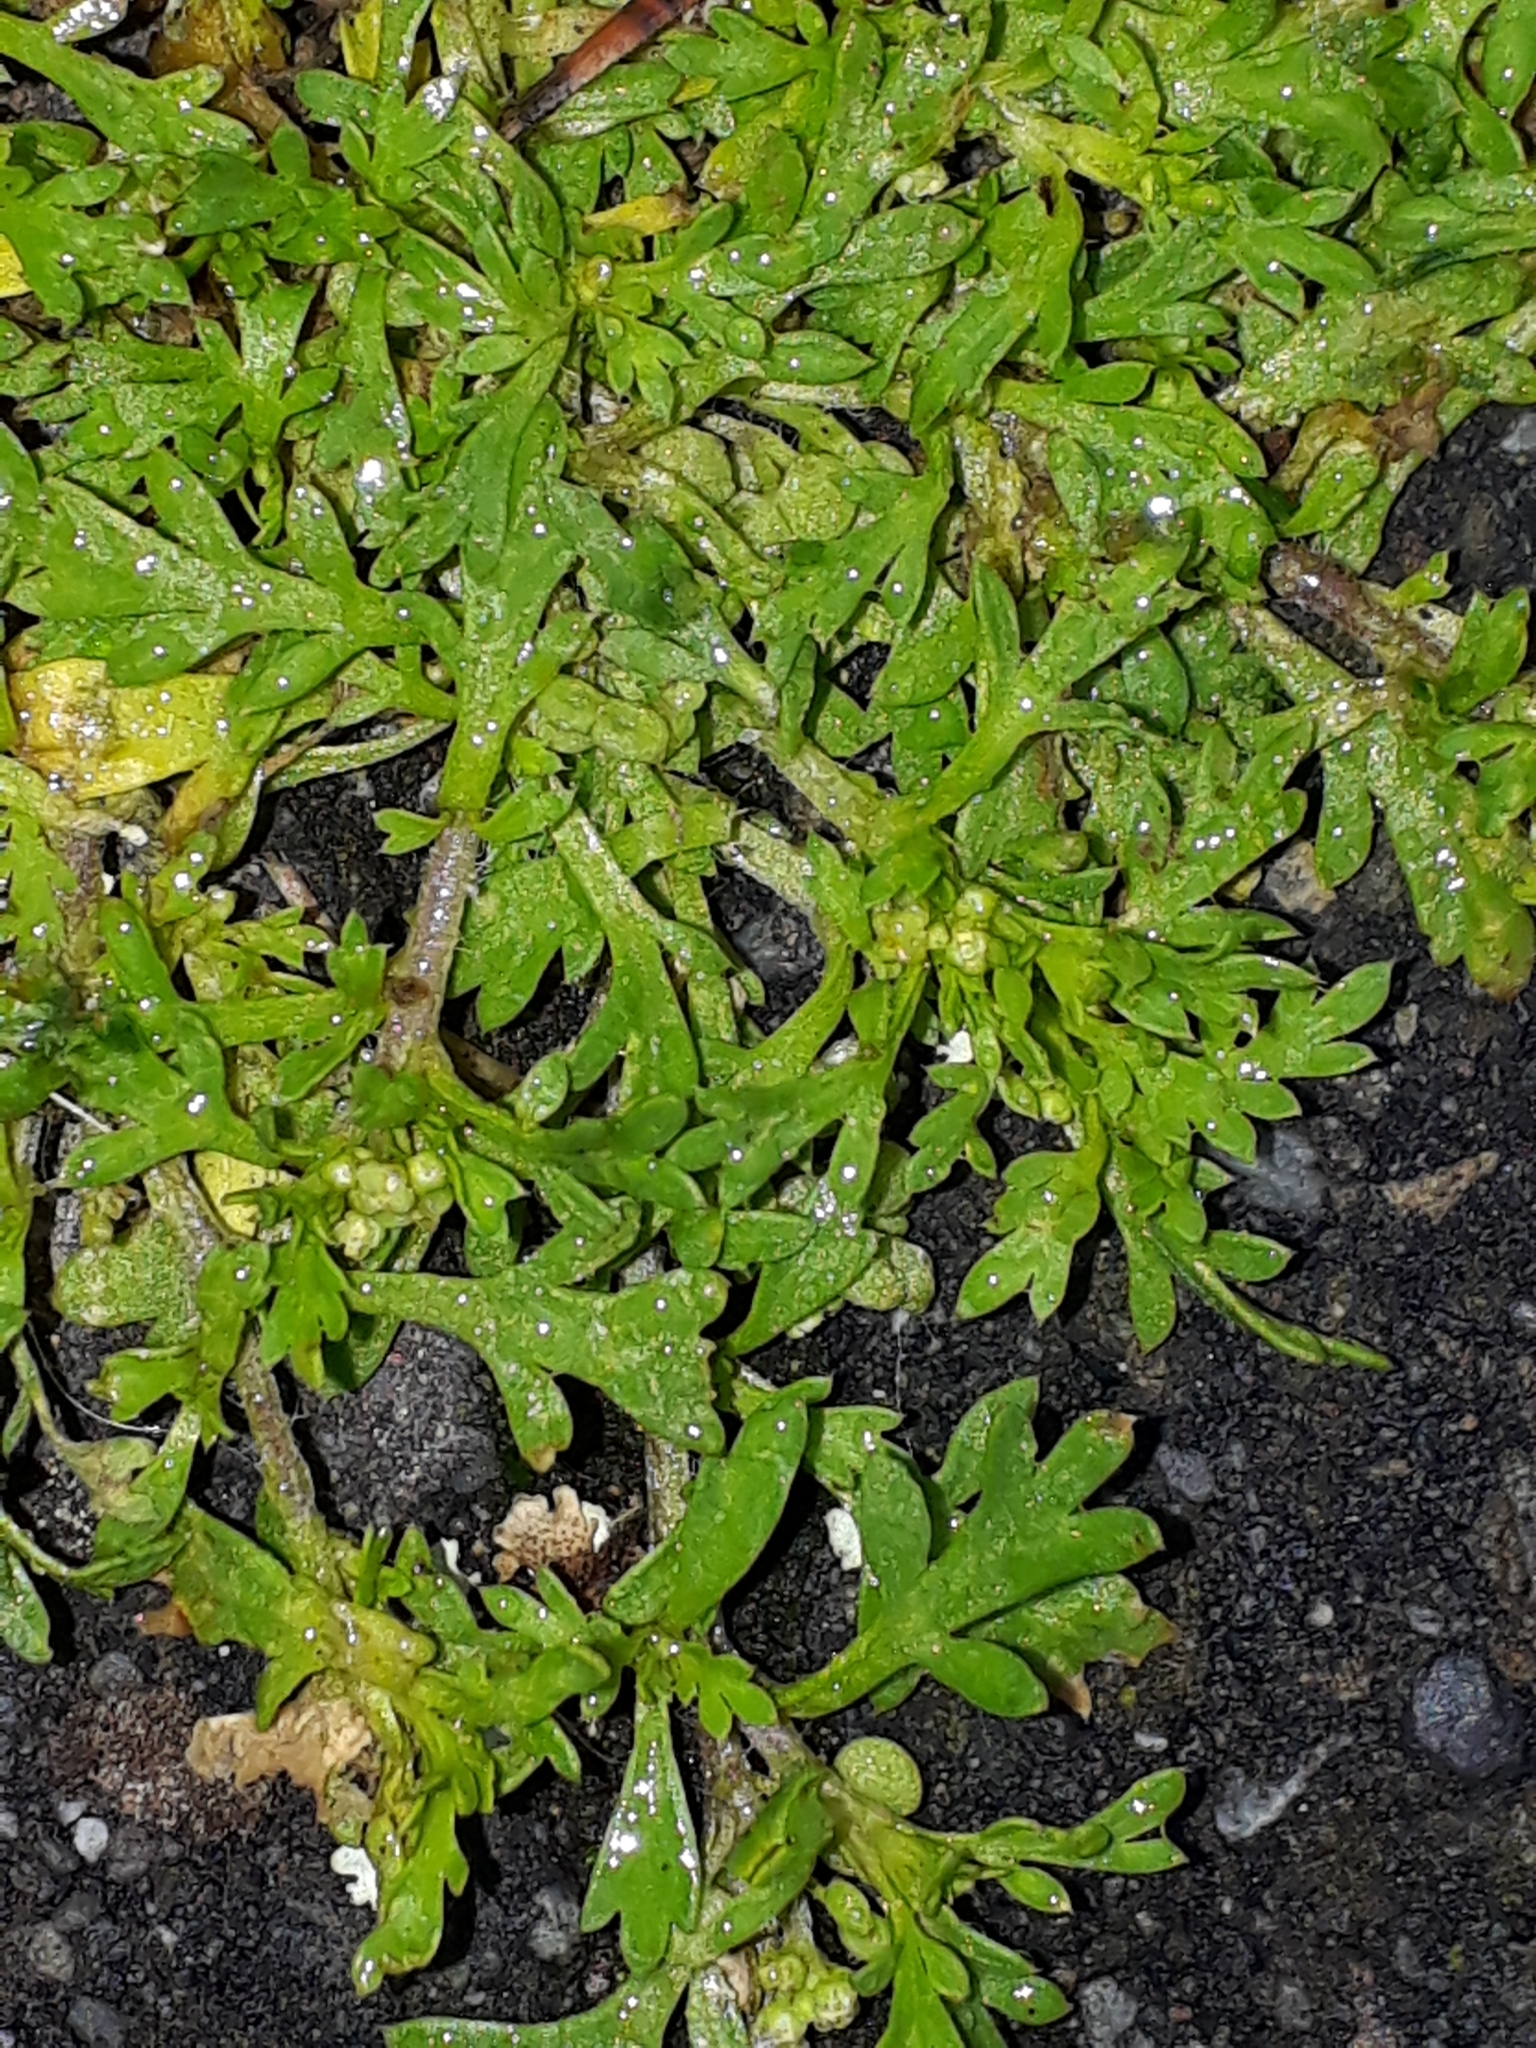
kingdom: Plantae
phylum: Tracheophyta
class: Magnoliopsida
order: Brassicales
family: Brassicaceae
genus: Lepidium
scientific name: Lepidium didymum
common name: Lesser swinecress
